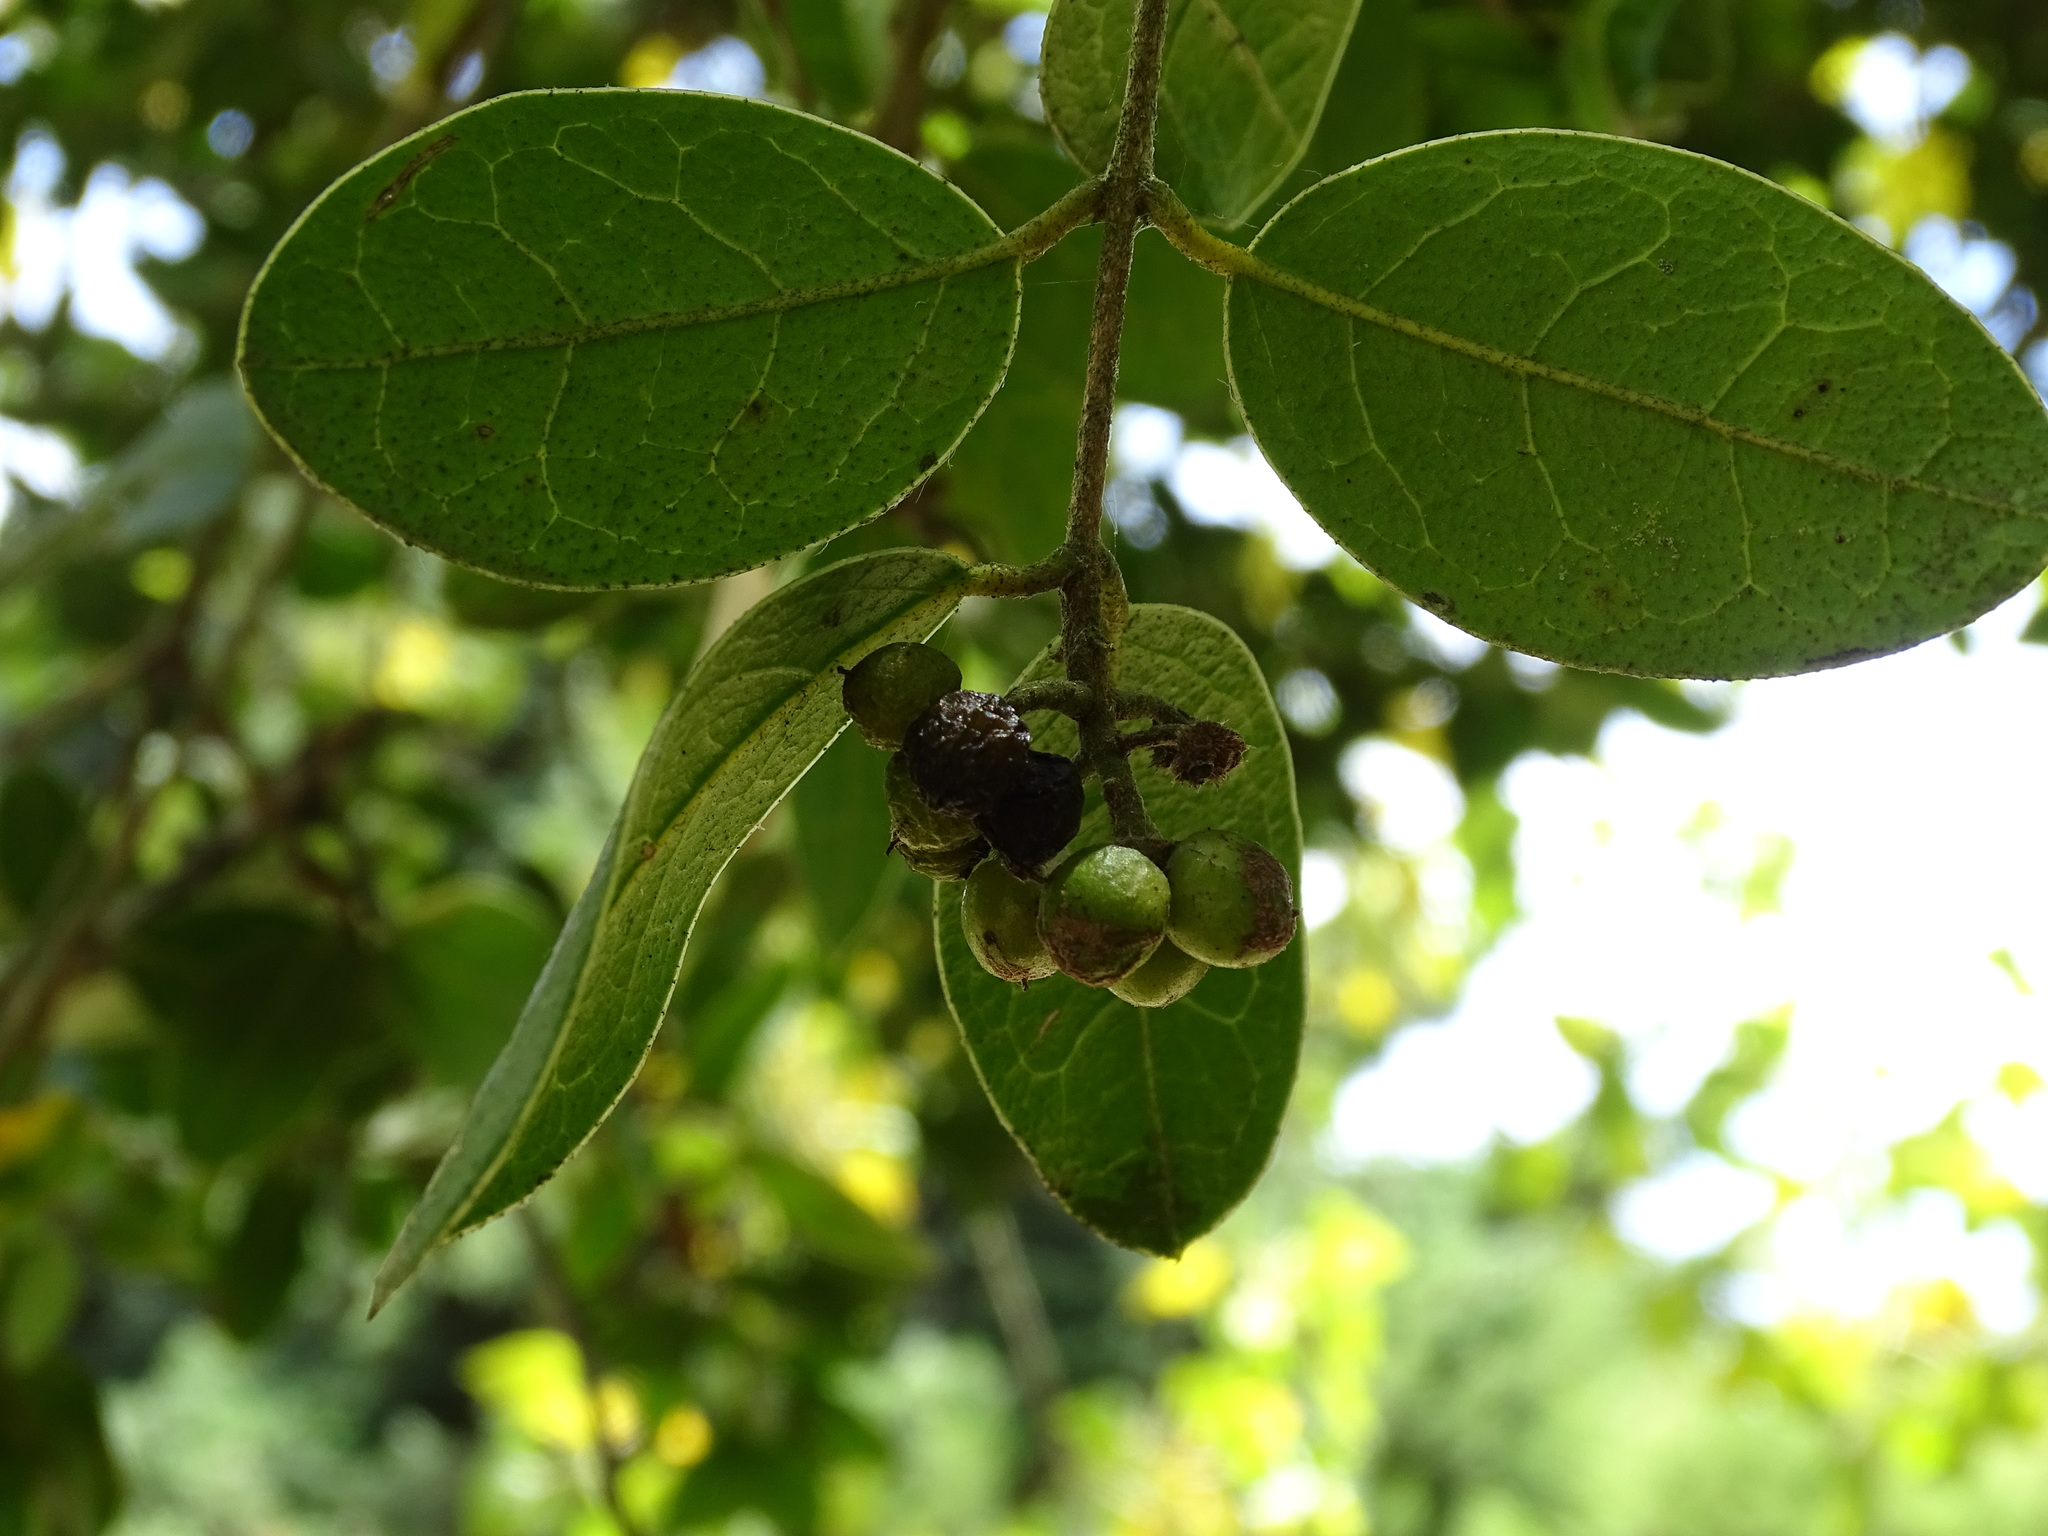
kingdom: Plantae
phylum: Tracheophyta
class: Magnoliopsida
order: Laurales
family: Monimiaceae
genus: Peumus
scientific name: Peumus boldus
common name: Boldo
